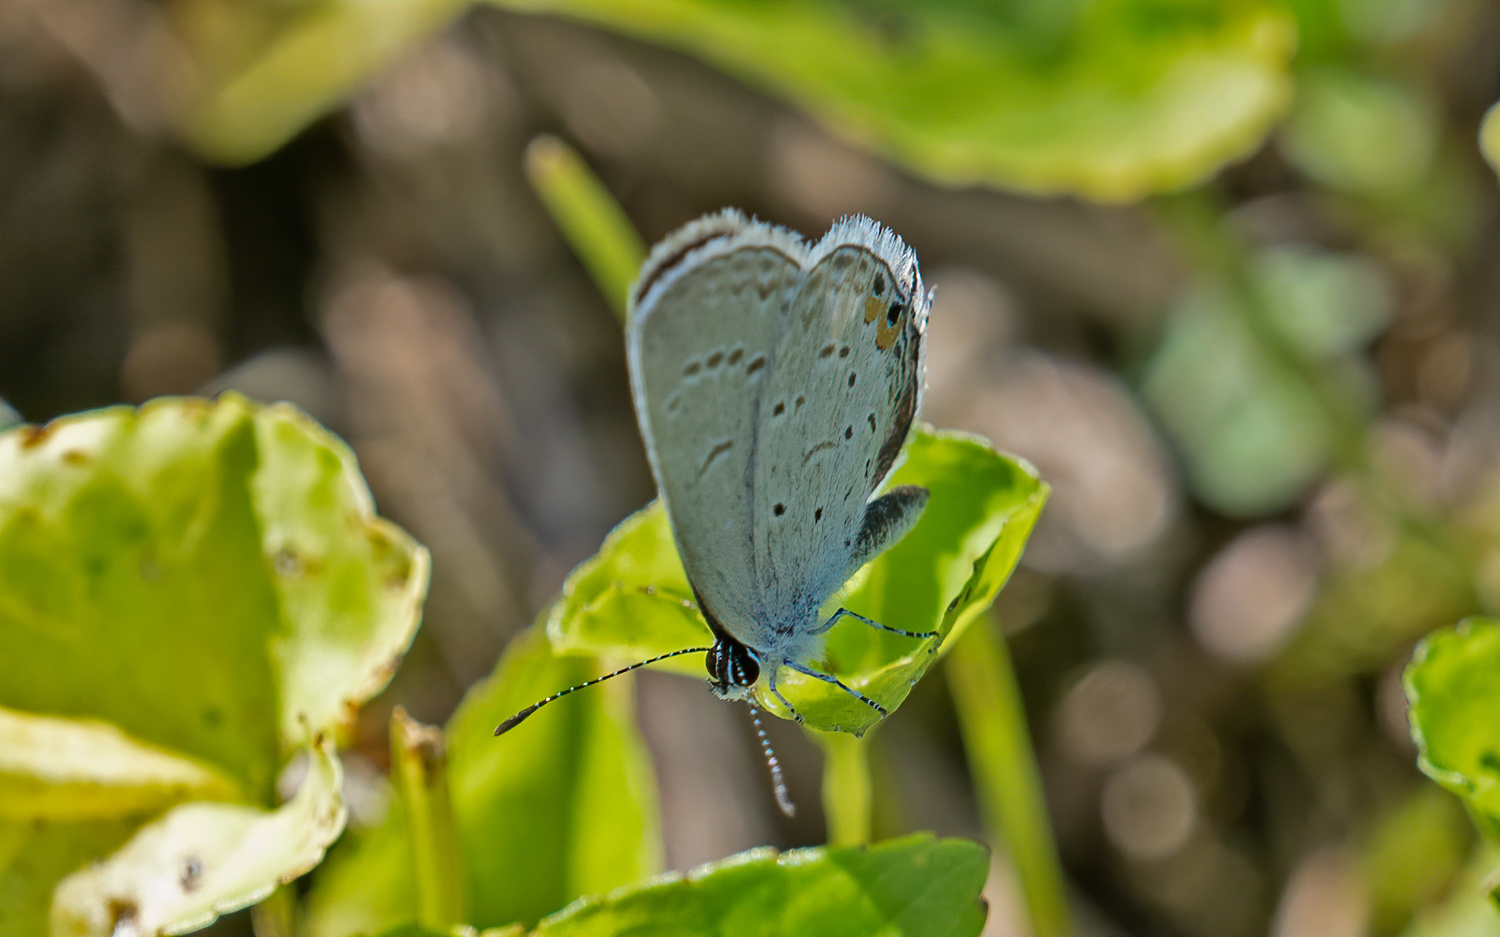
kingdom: Animalia
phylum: Arthropoda
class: Insecta
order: Lepidoptera
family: Lycaenidae
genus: Elkalyce
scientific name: Elkalyce comyntas
